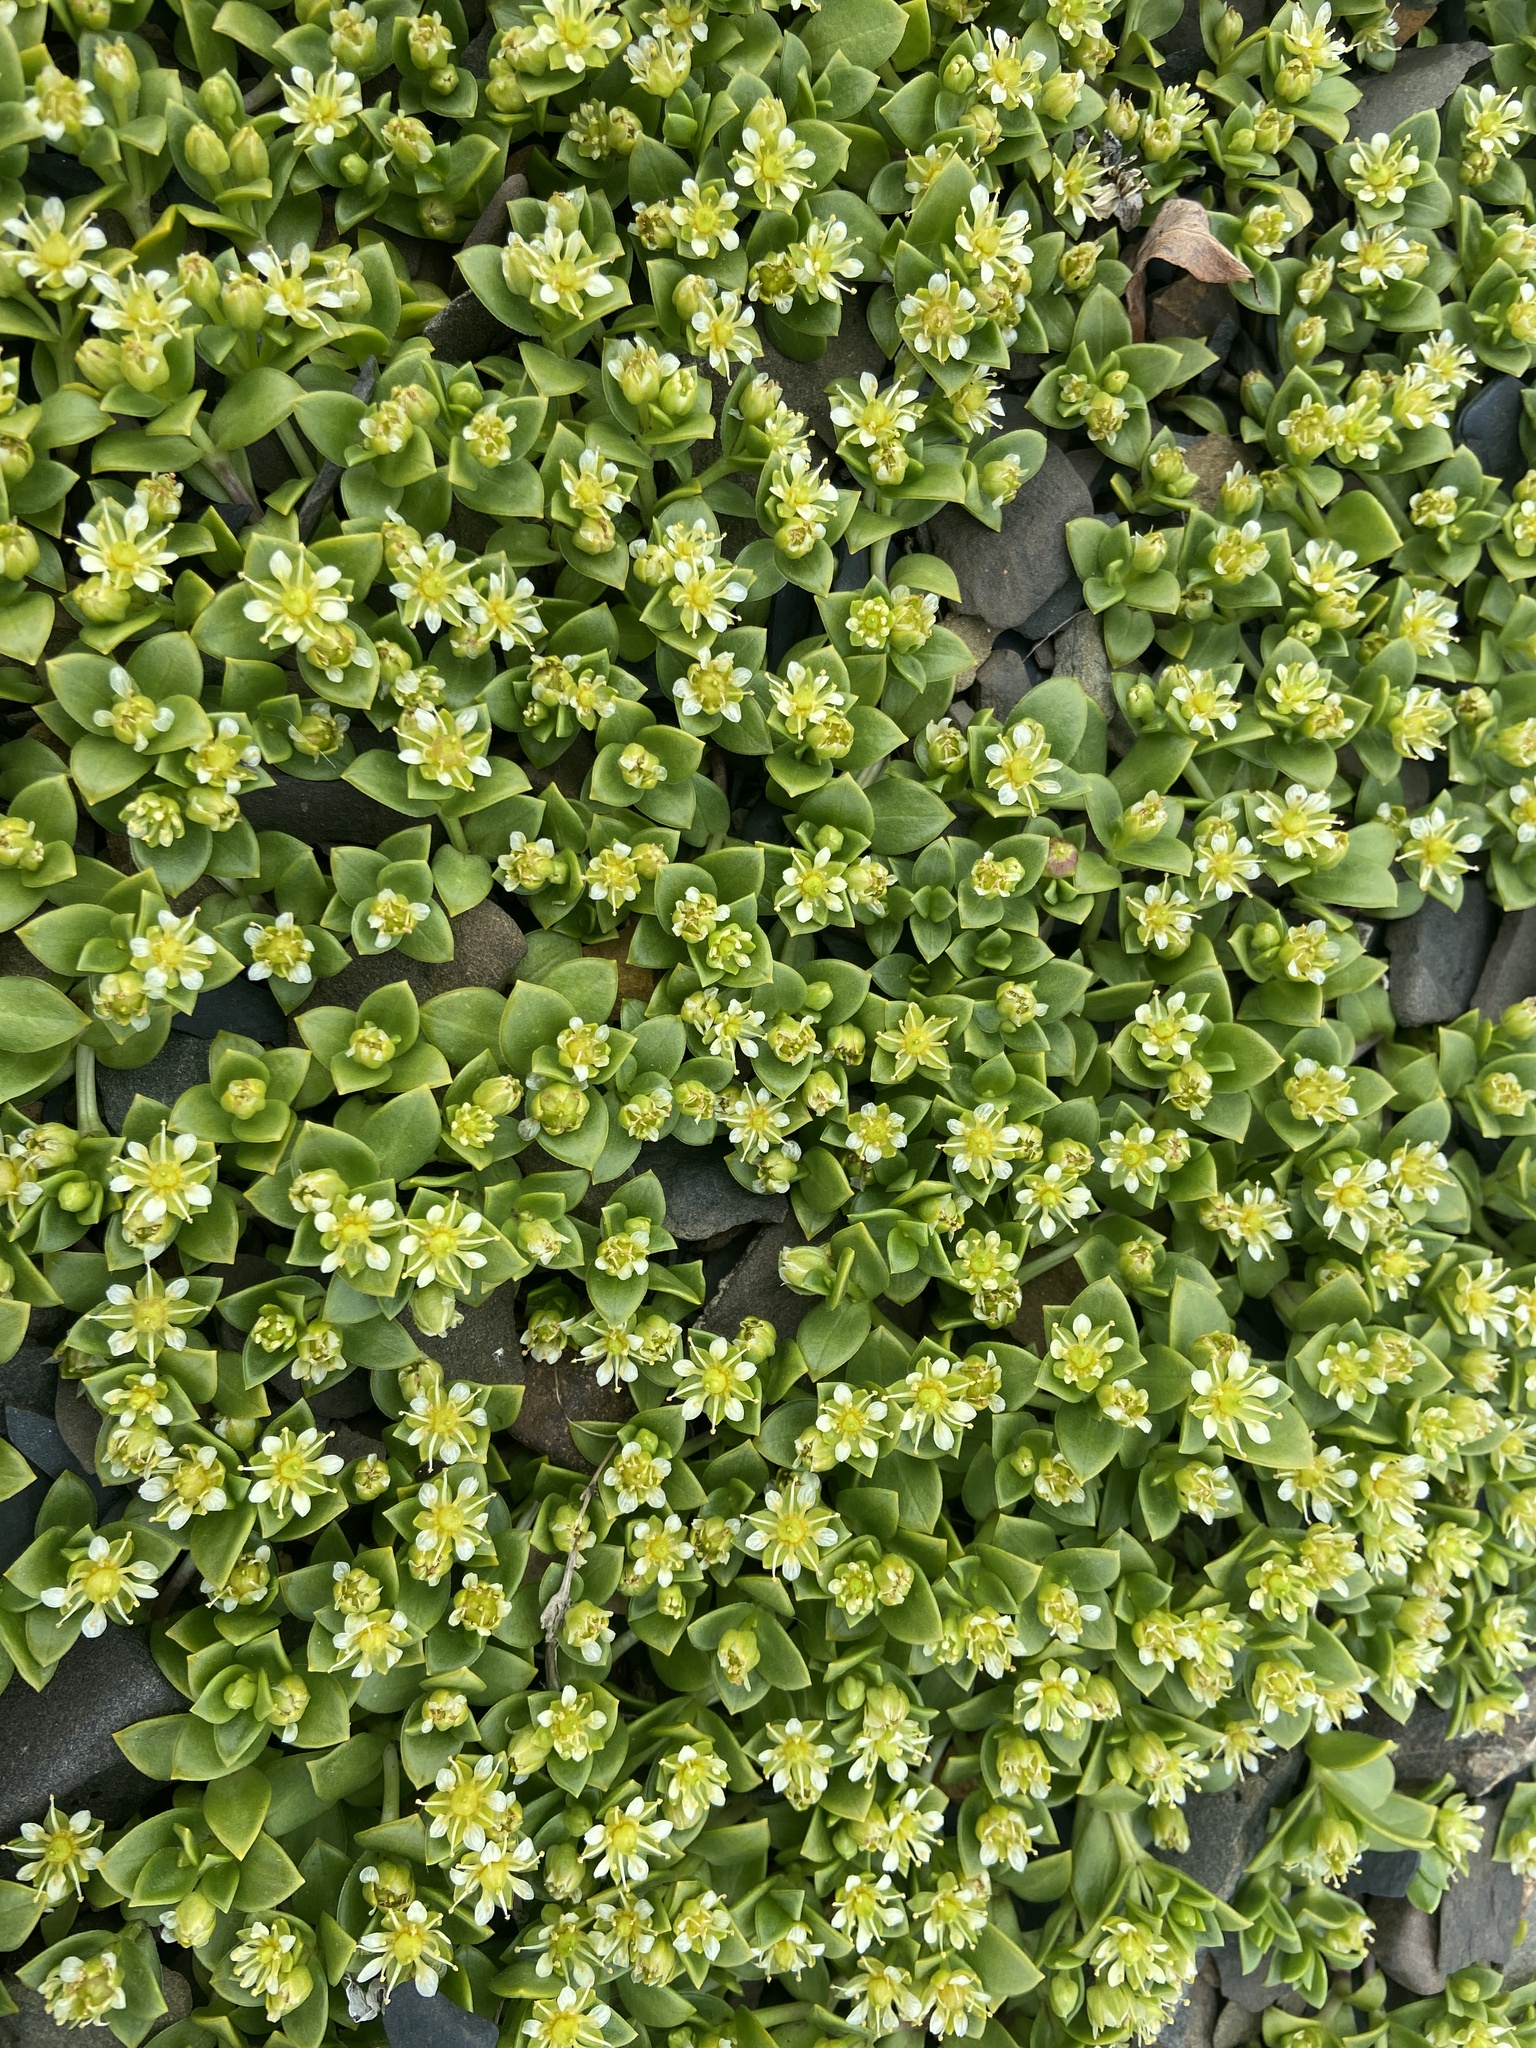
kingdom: Plantae
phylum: Tracheophyta
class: Magnoliopsida
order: Caryophyllales
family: Caryophyllaceae
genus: Honckenya
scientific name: Honckenya peploides
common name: Sea sandwort
